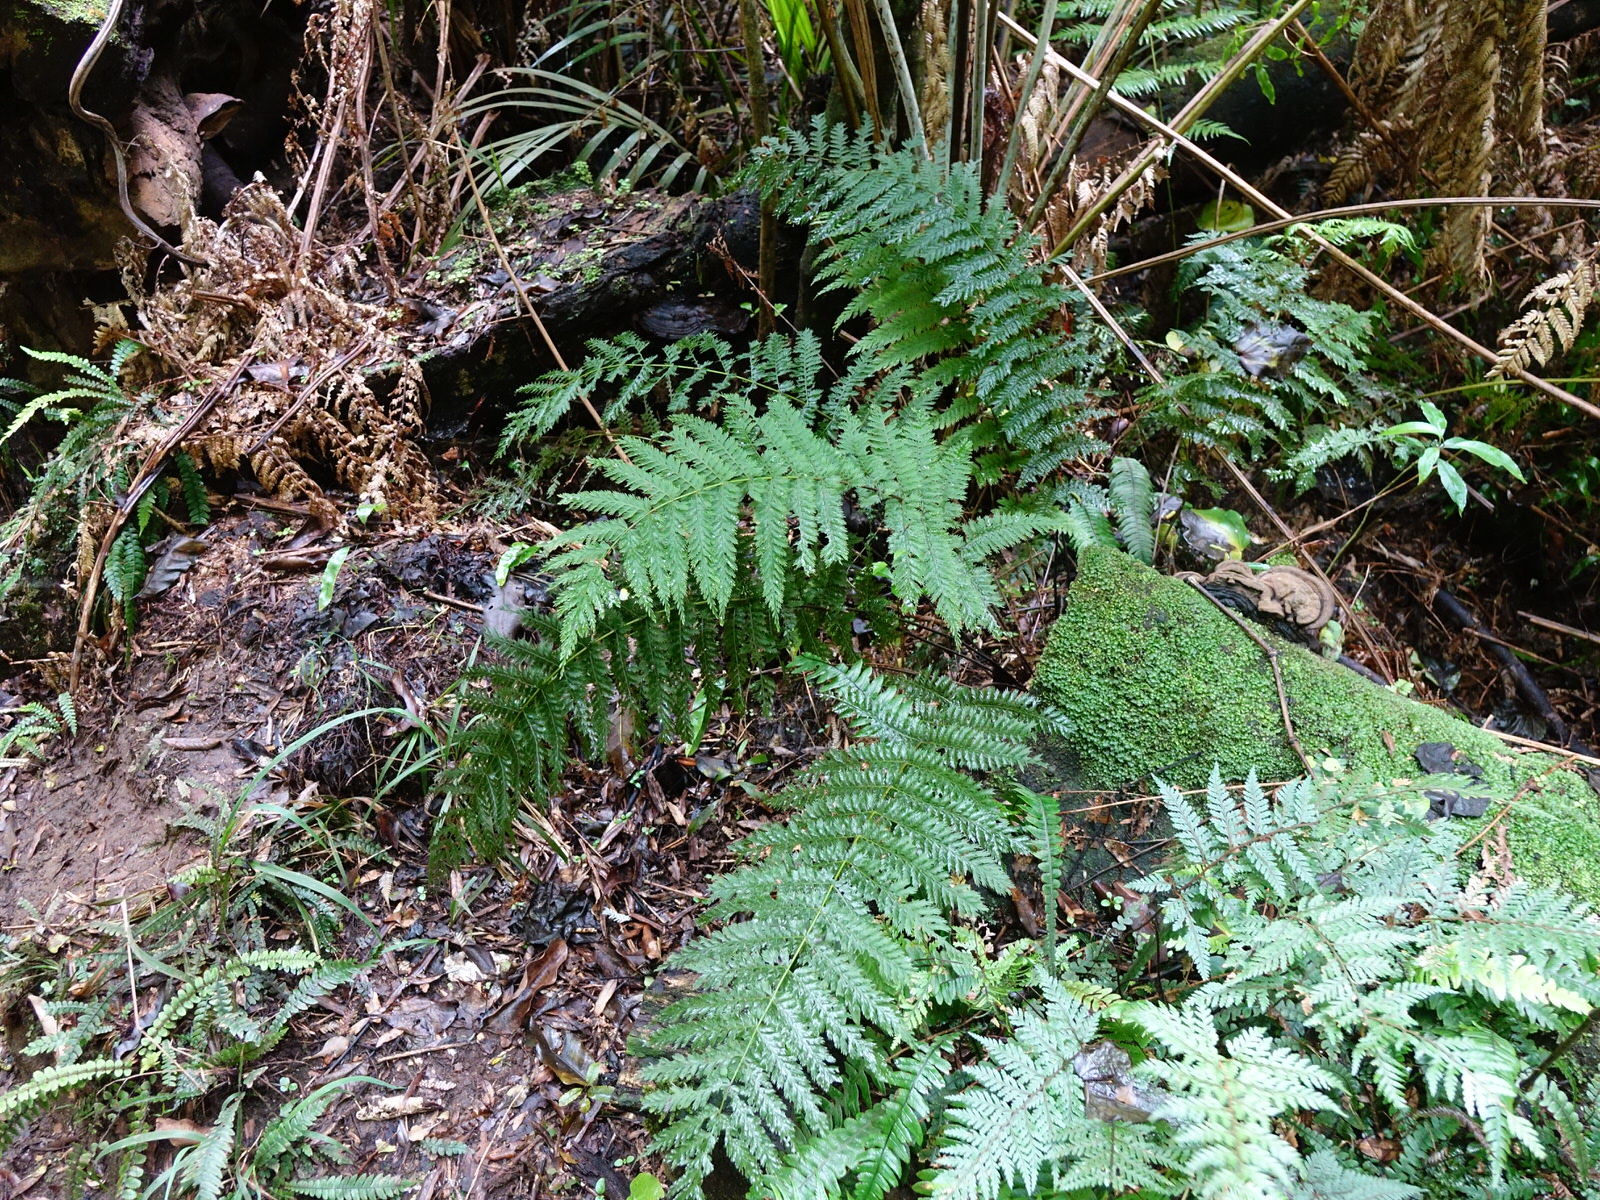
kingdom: Plantae
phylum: Tracheophyta
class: Polypodiopsida
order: Osmundales
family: Osmundaceae
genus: Leptopteris
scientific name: Leptopteris hymenophylloides
